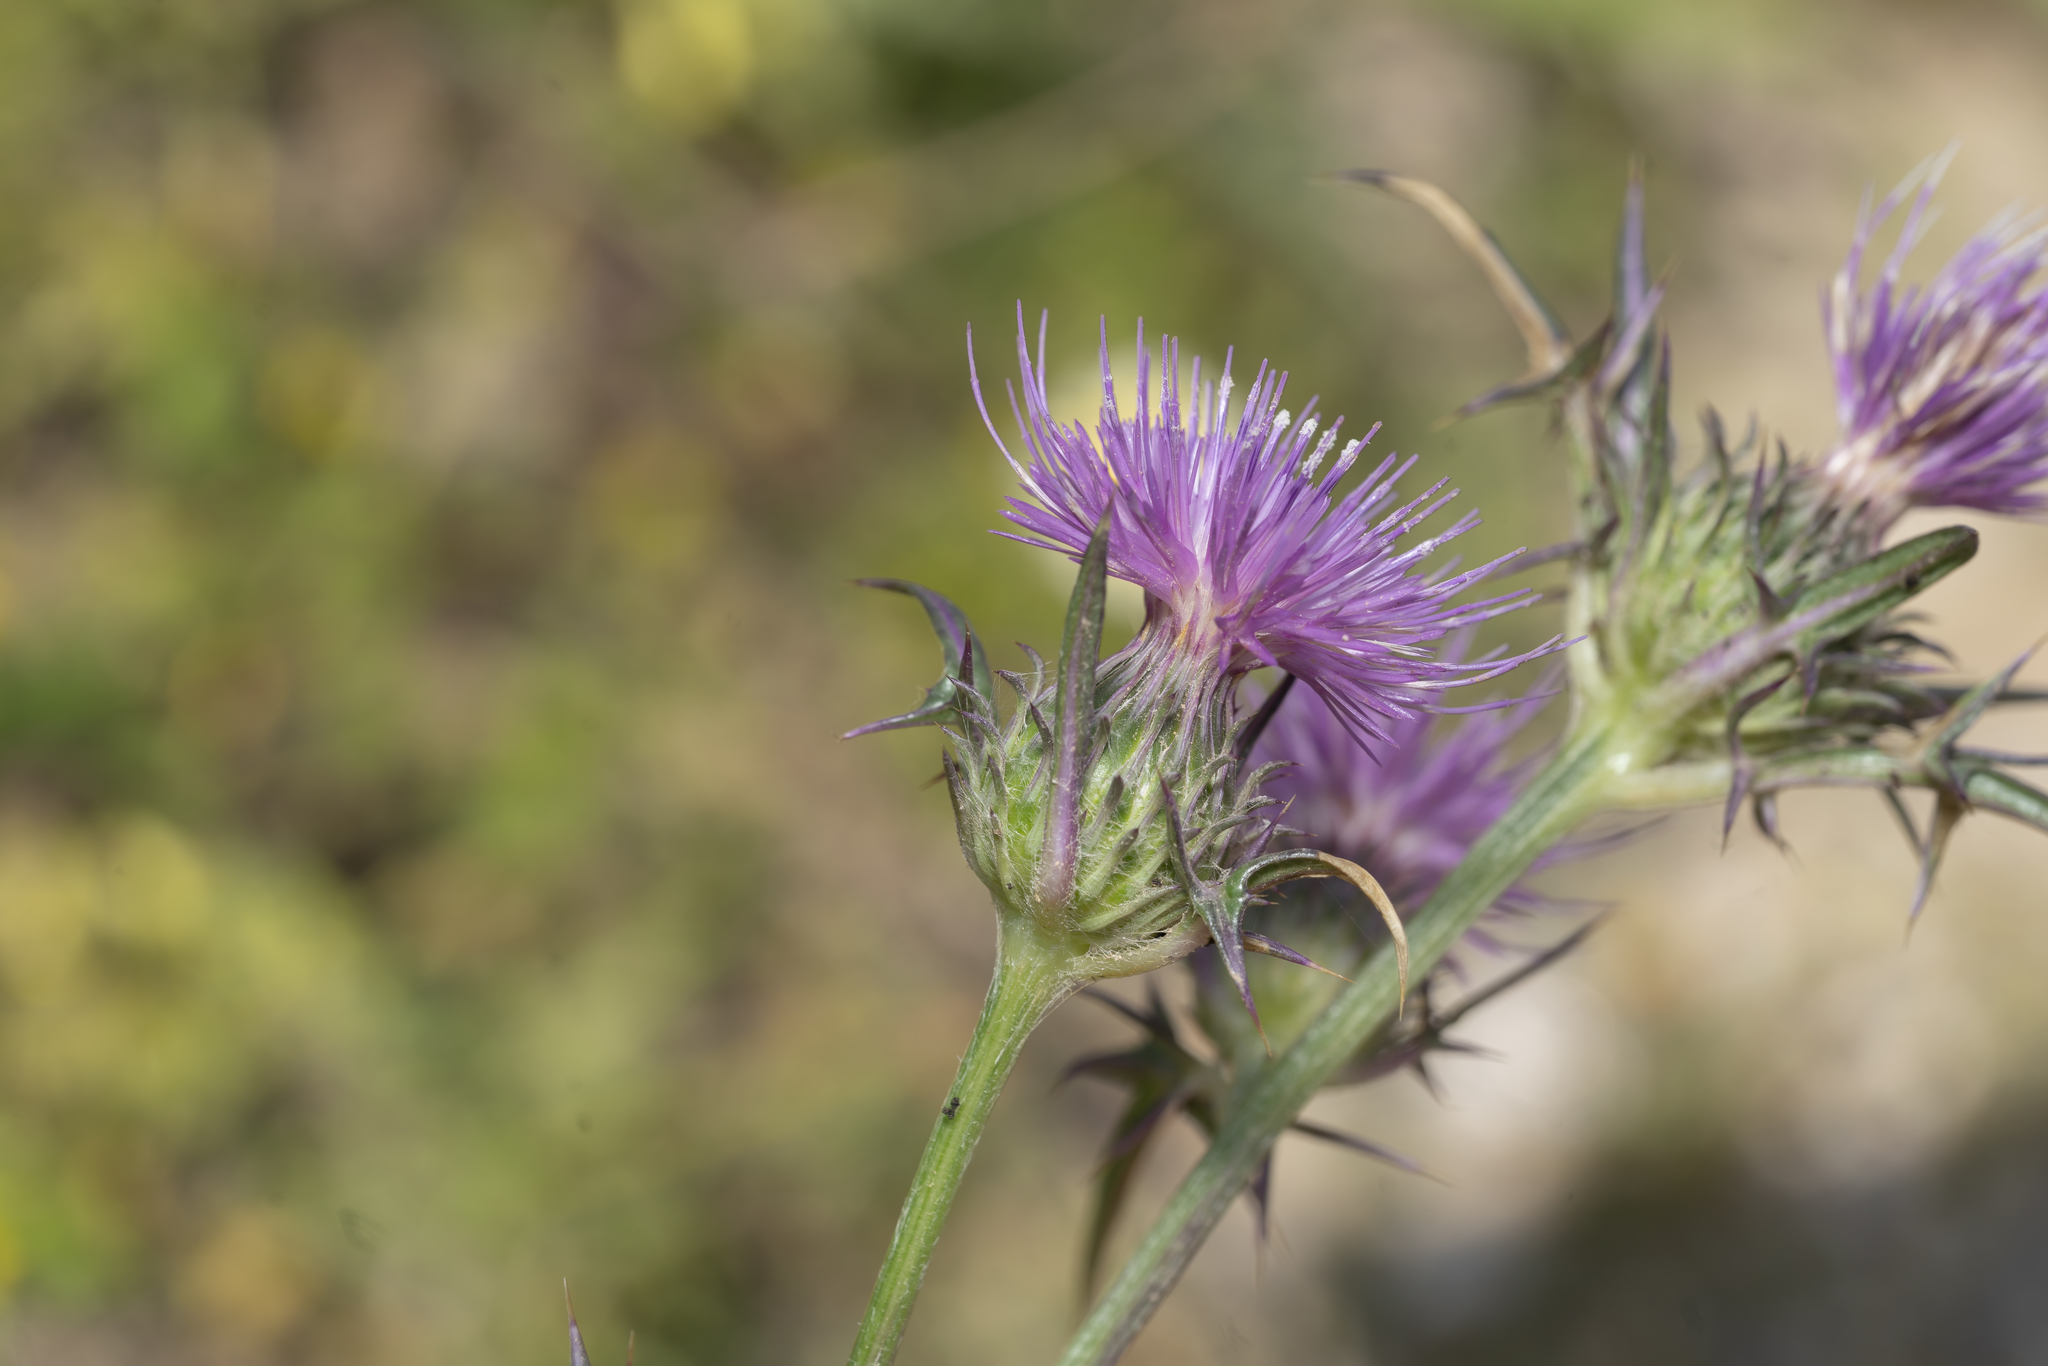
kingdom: Plantae
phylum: Tracheophyta
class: Magnoliopsida
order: Asterales
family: Asteraceae
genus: Notobasis
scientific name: Notobasis syriaca
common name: Syrian thistle
